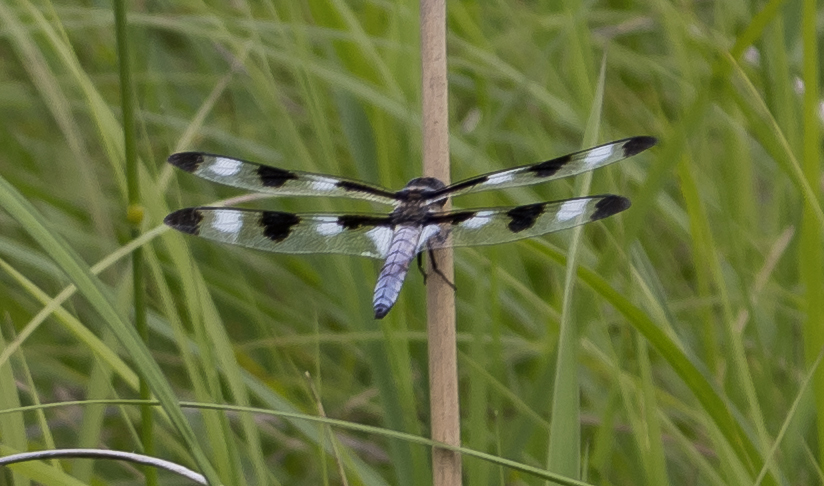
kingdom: Animalia
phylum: Arthropoda
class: Insecta
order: Odonata
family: Libellulidae
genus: Libellula
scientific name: Libellula pulchella
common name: Twelve-spotted skimmer
